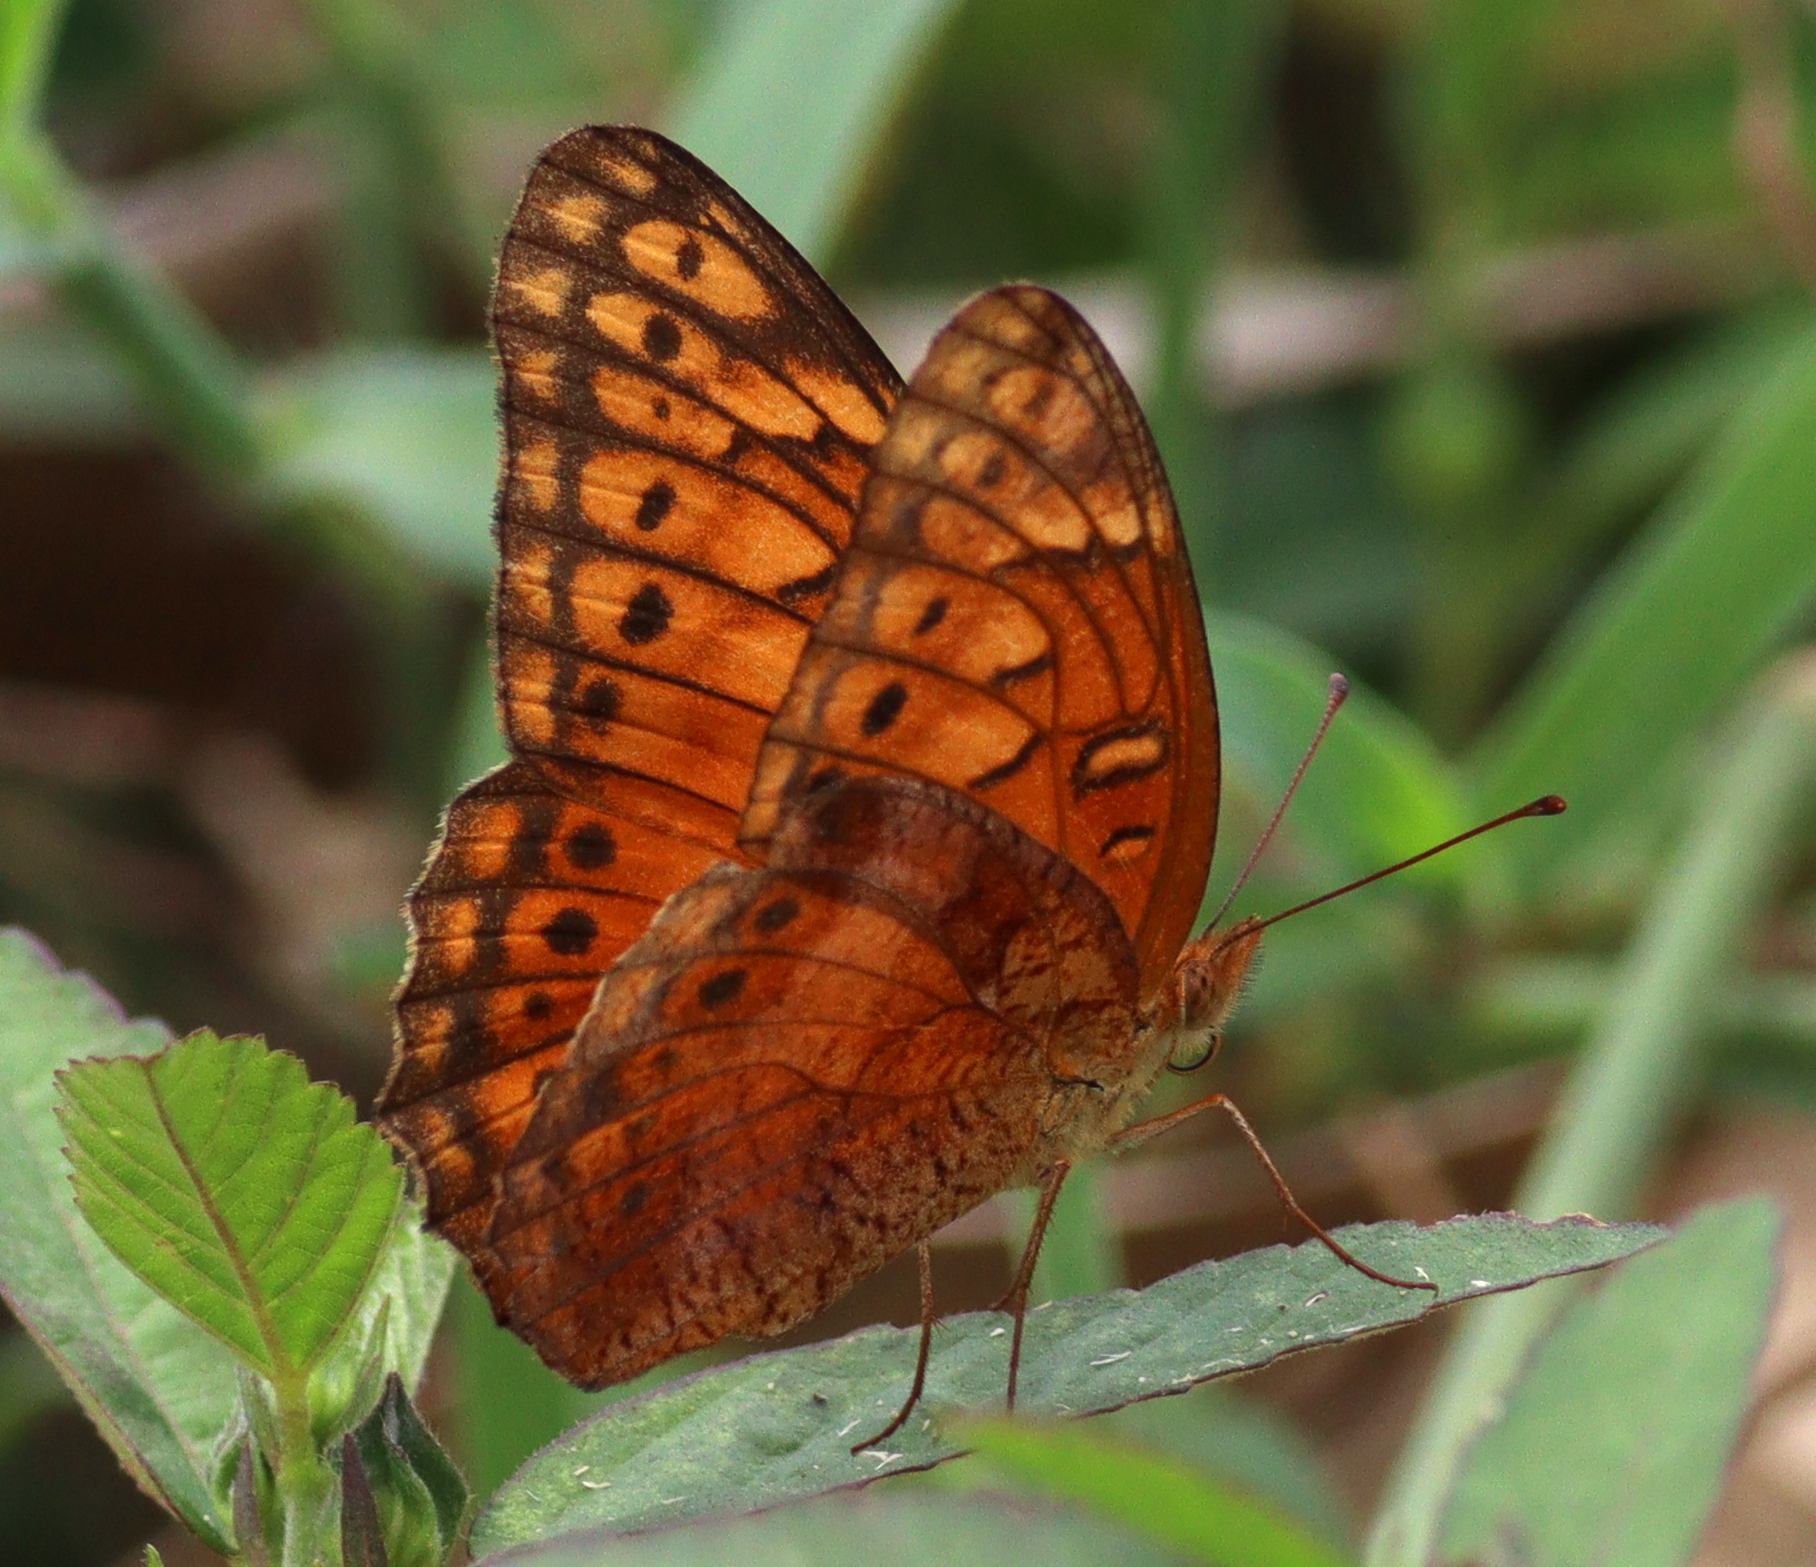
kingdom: Animalia
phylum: Arthropoda
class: Insecta
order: Lepidoptera
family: Nymphalidae
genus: Euptoieta
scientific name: Euptoieta hegesia
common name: Mexican fritillary
